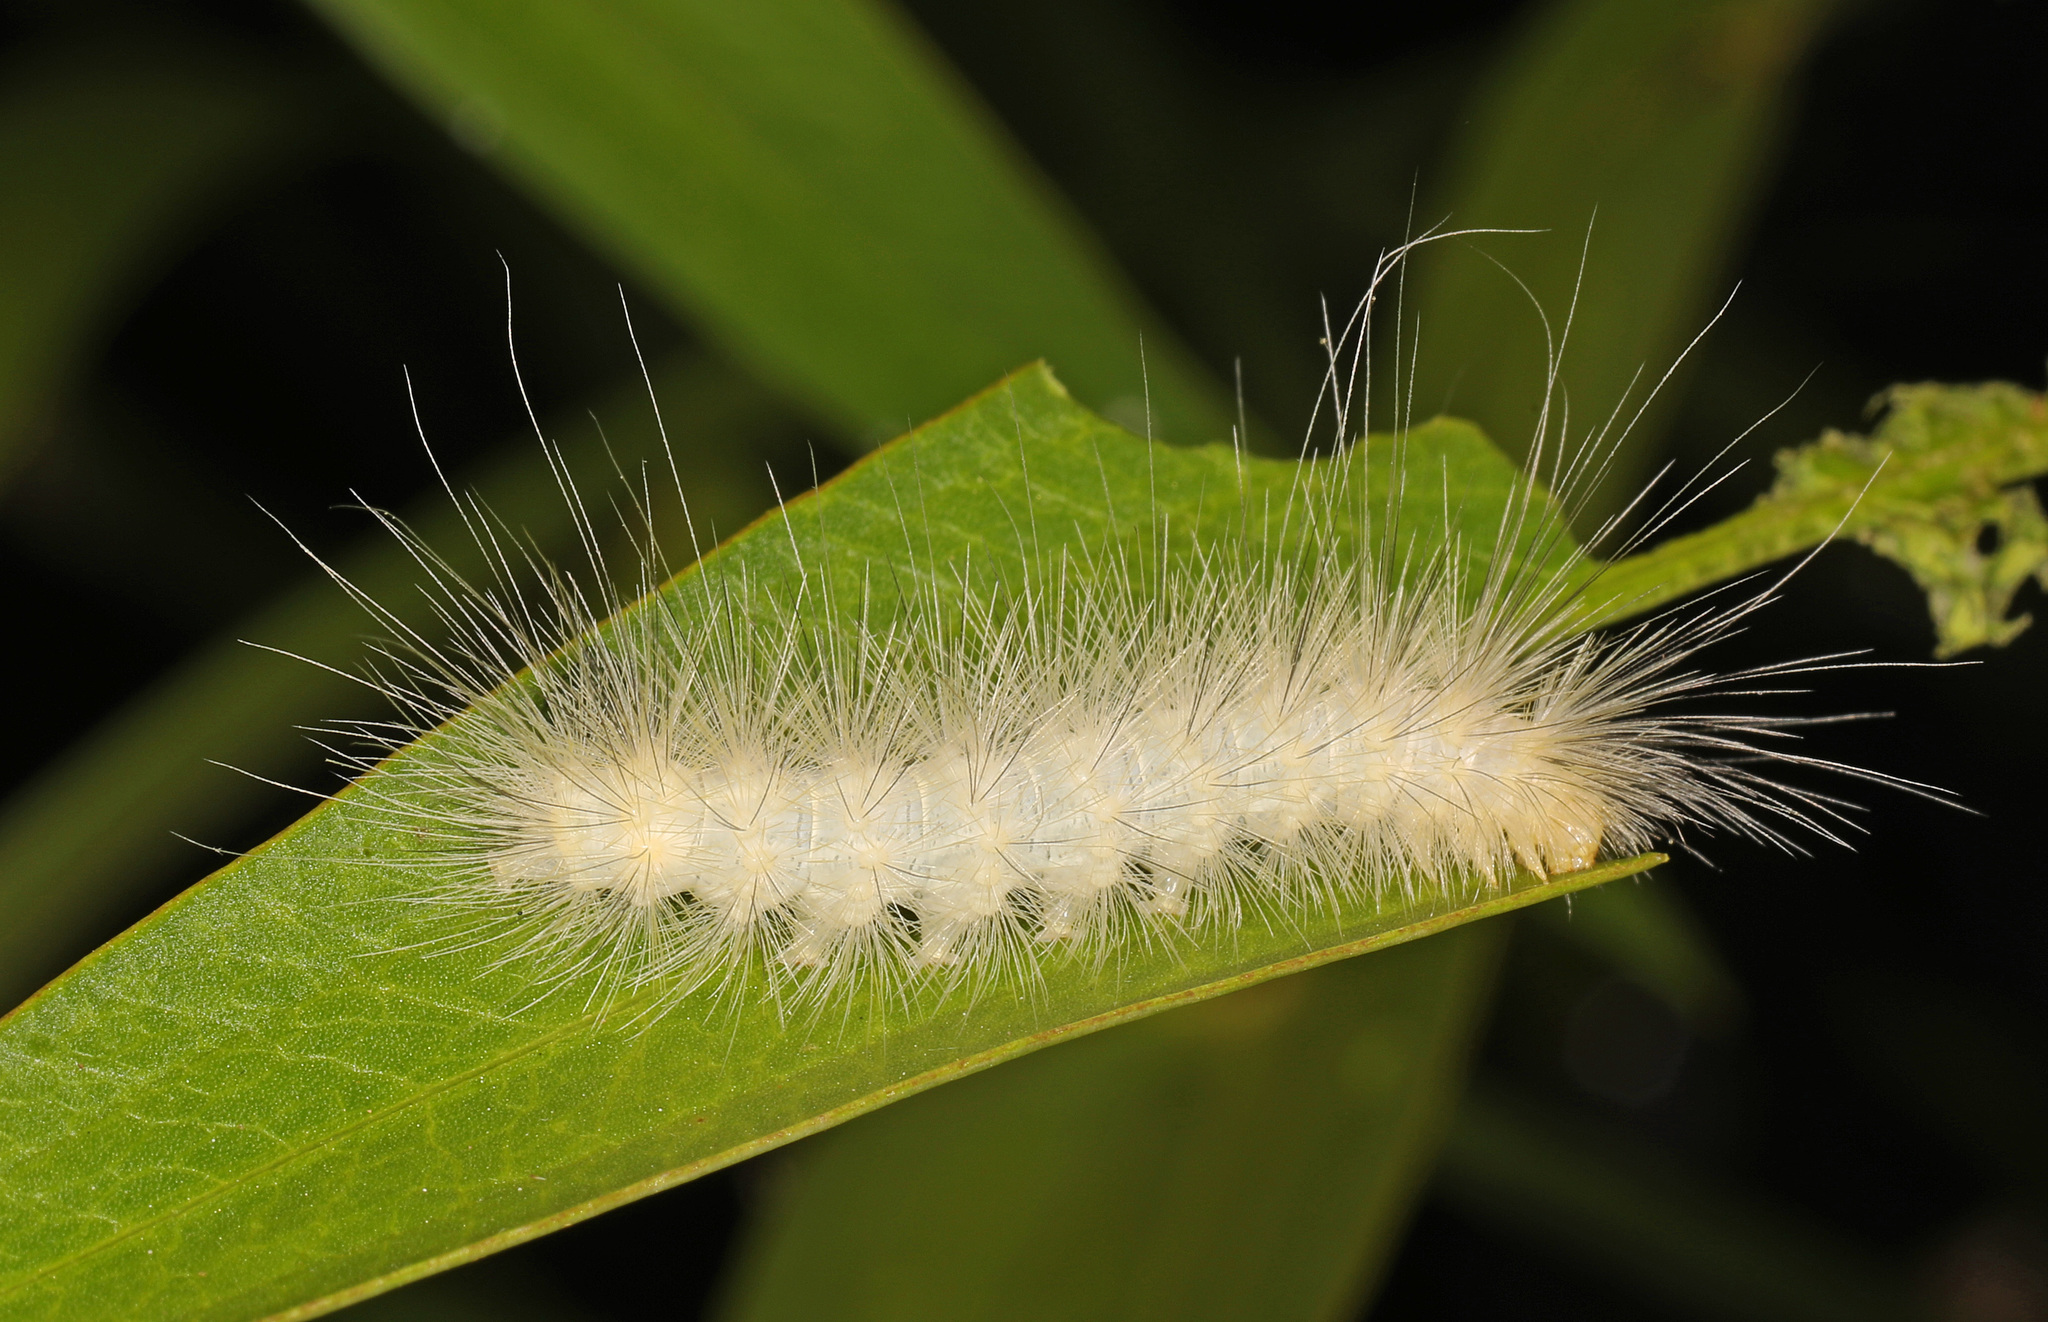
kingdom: Animalia
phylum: Arthropoda
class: Insecta
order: Lepidoptera
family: Erebidae
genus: Spilosoma
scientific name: Spilosoma virginica
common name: Virginia tiger moth
